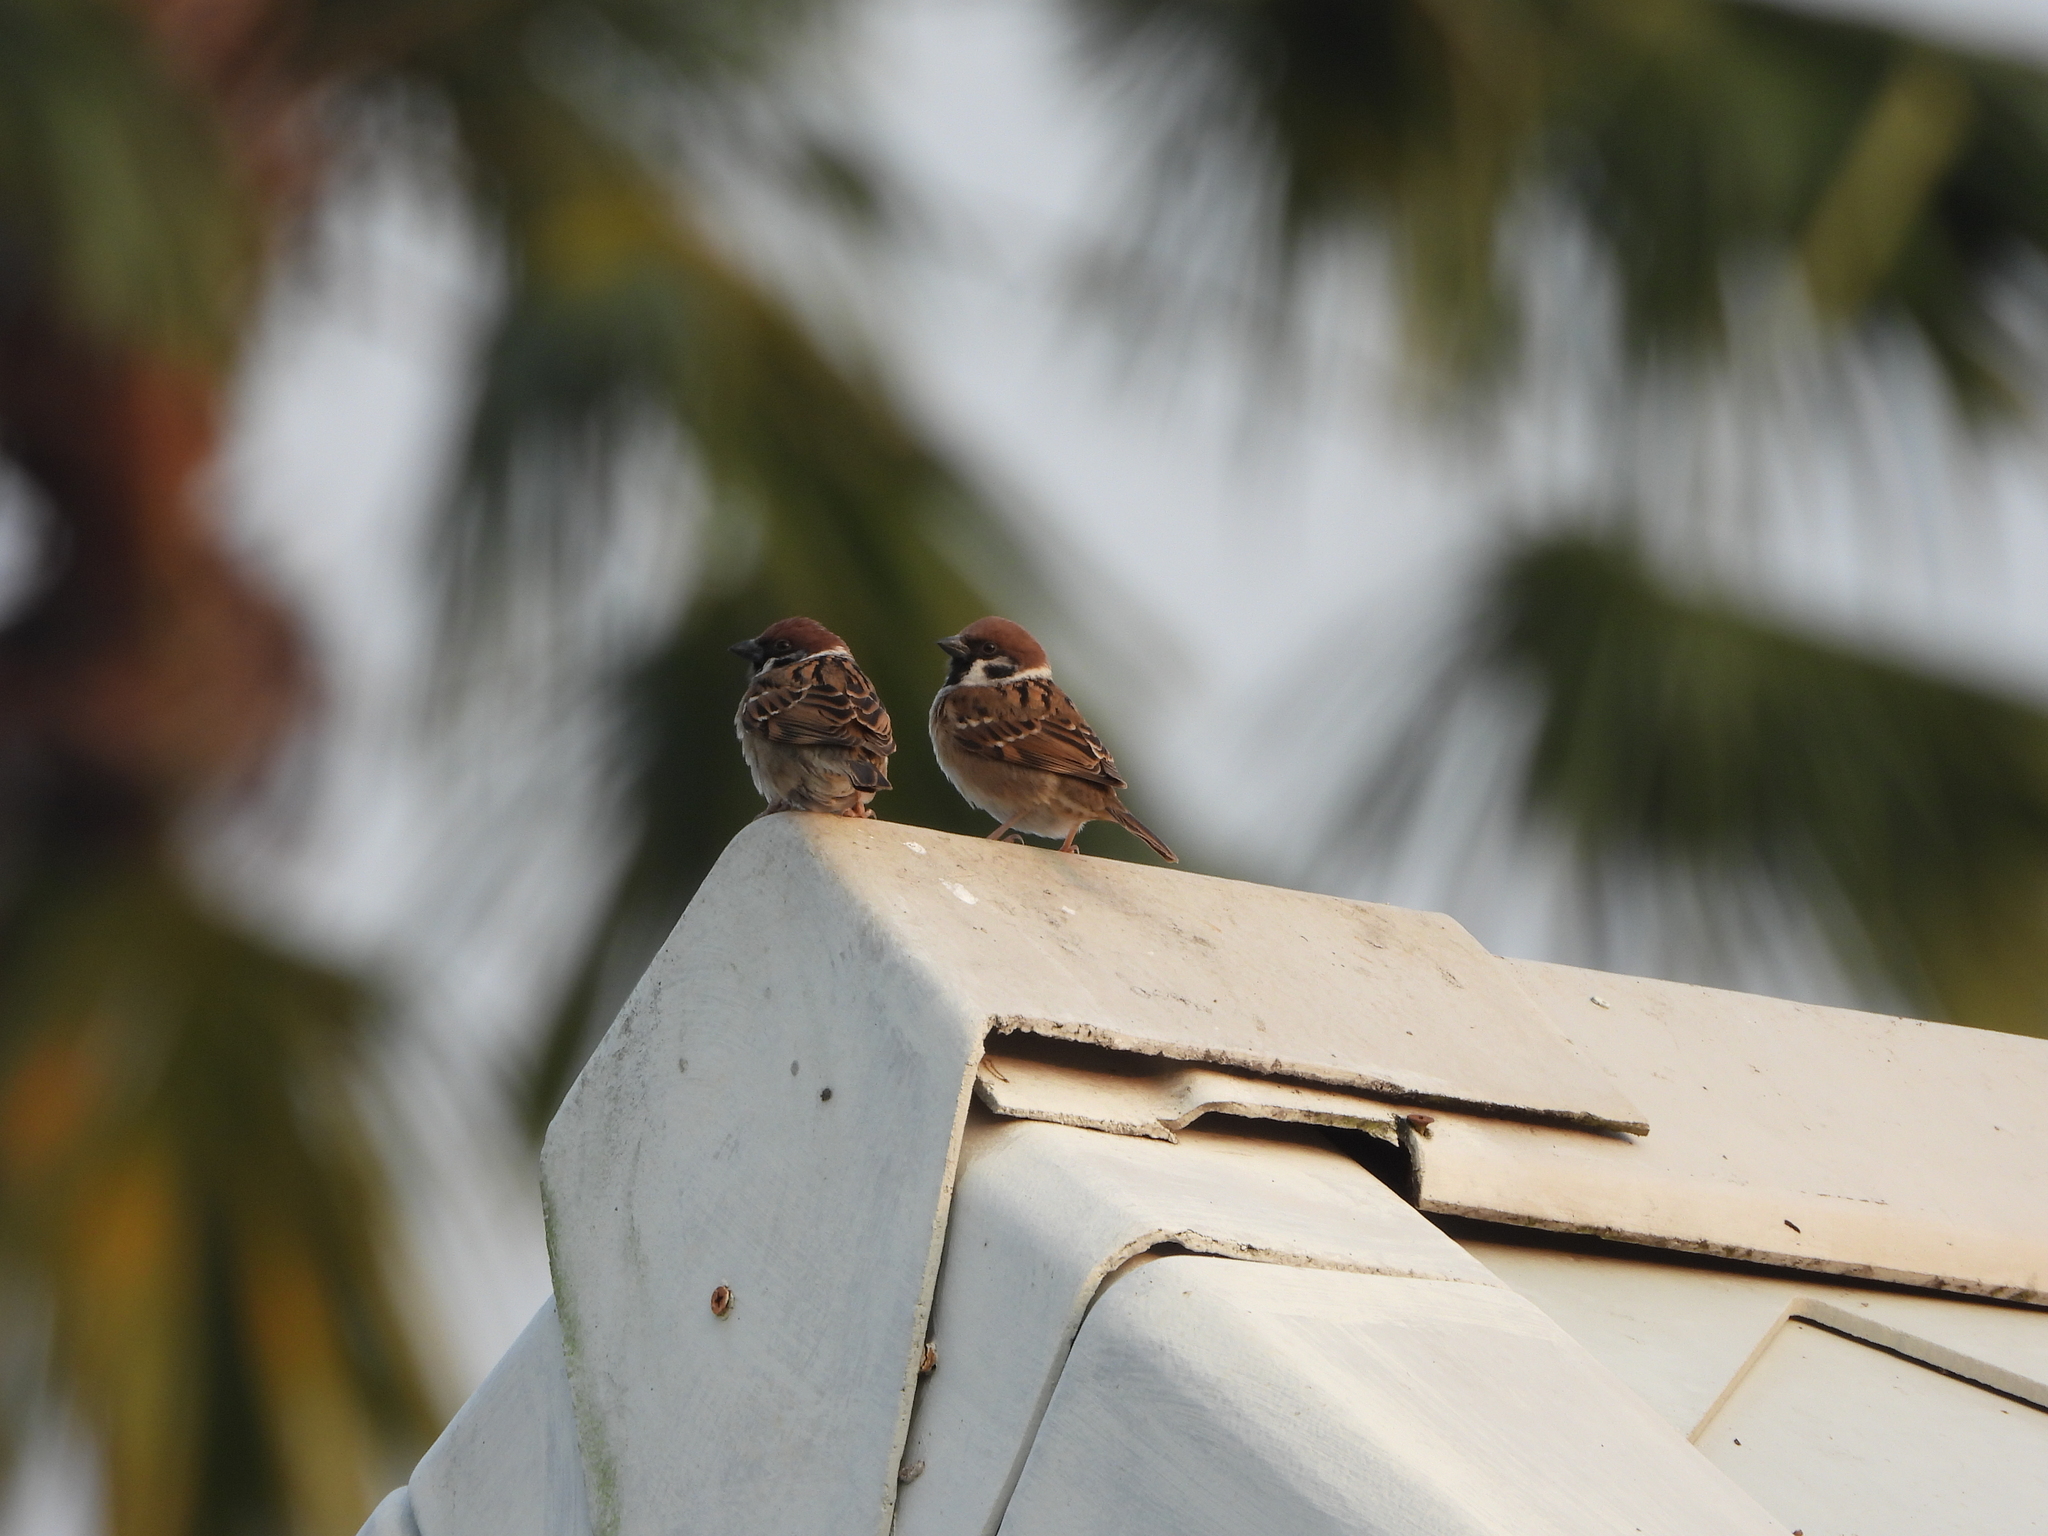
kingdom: Animalia
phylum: Chordata
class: Aves
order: Passeriformes
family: Passeridae
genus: Passer
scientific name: Passer montanus
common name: Eurasian tree sparrow
